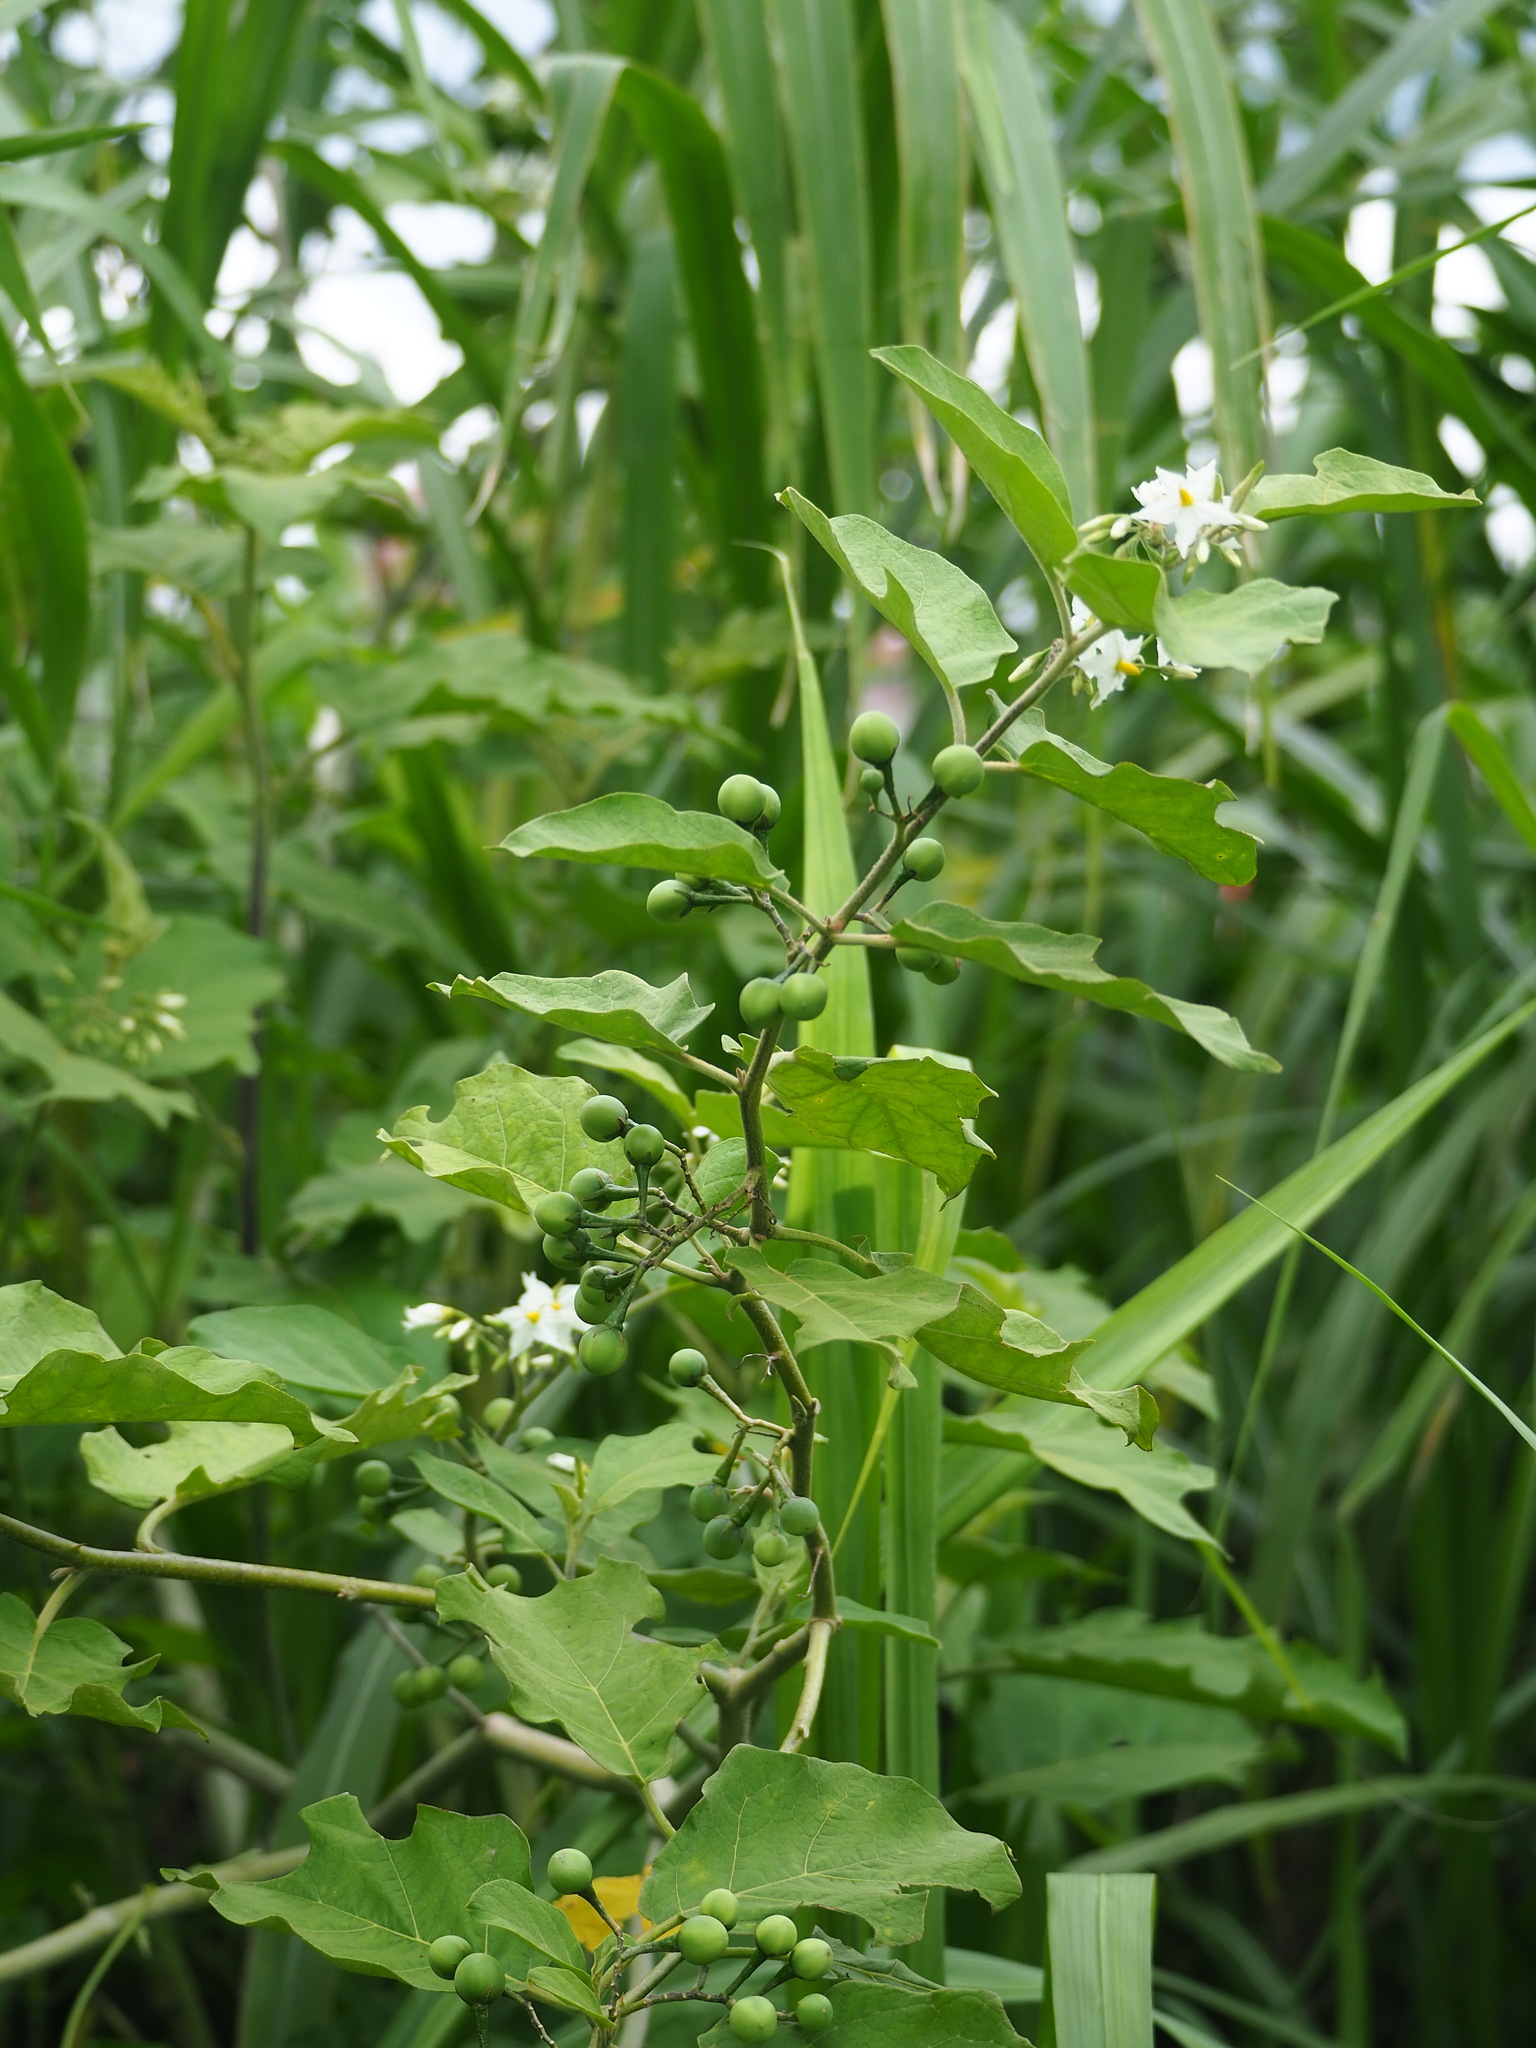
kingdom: Plantae
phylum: Tracheophyta
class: Magnoliopsida
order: Solanales
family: Solanaceae
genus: Solanum
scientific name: Solanum torvum
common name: Turkey berry
